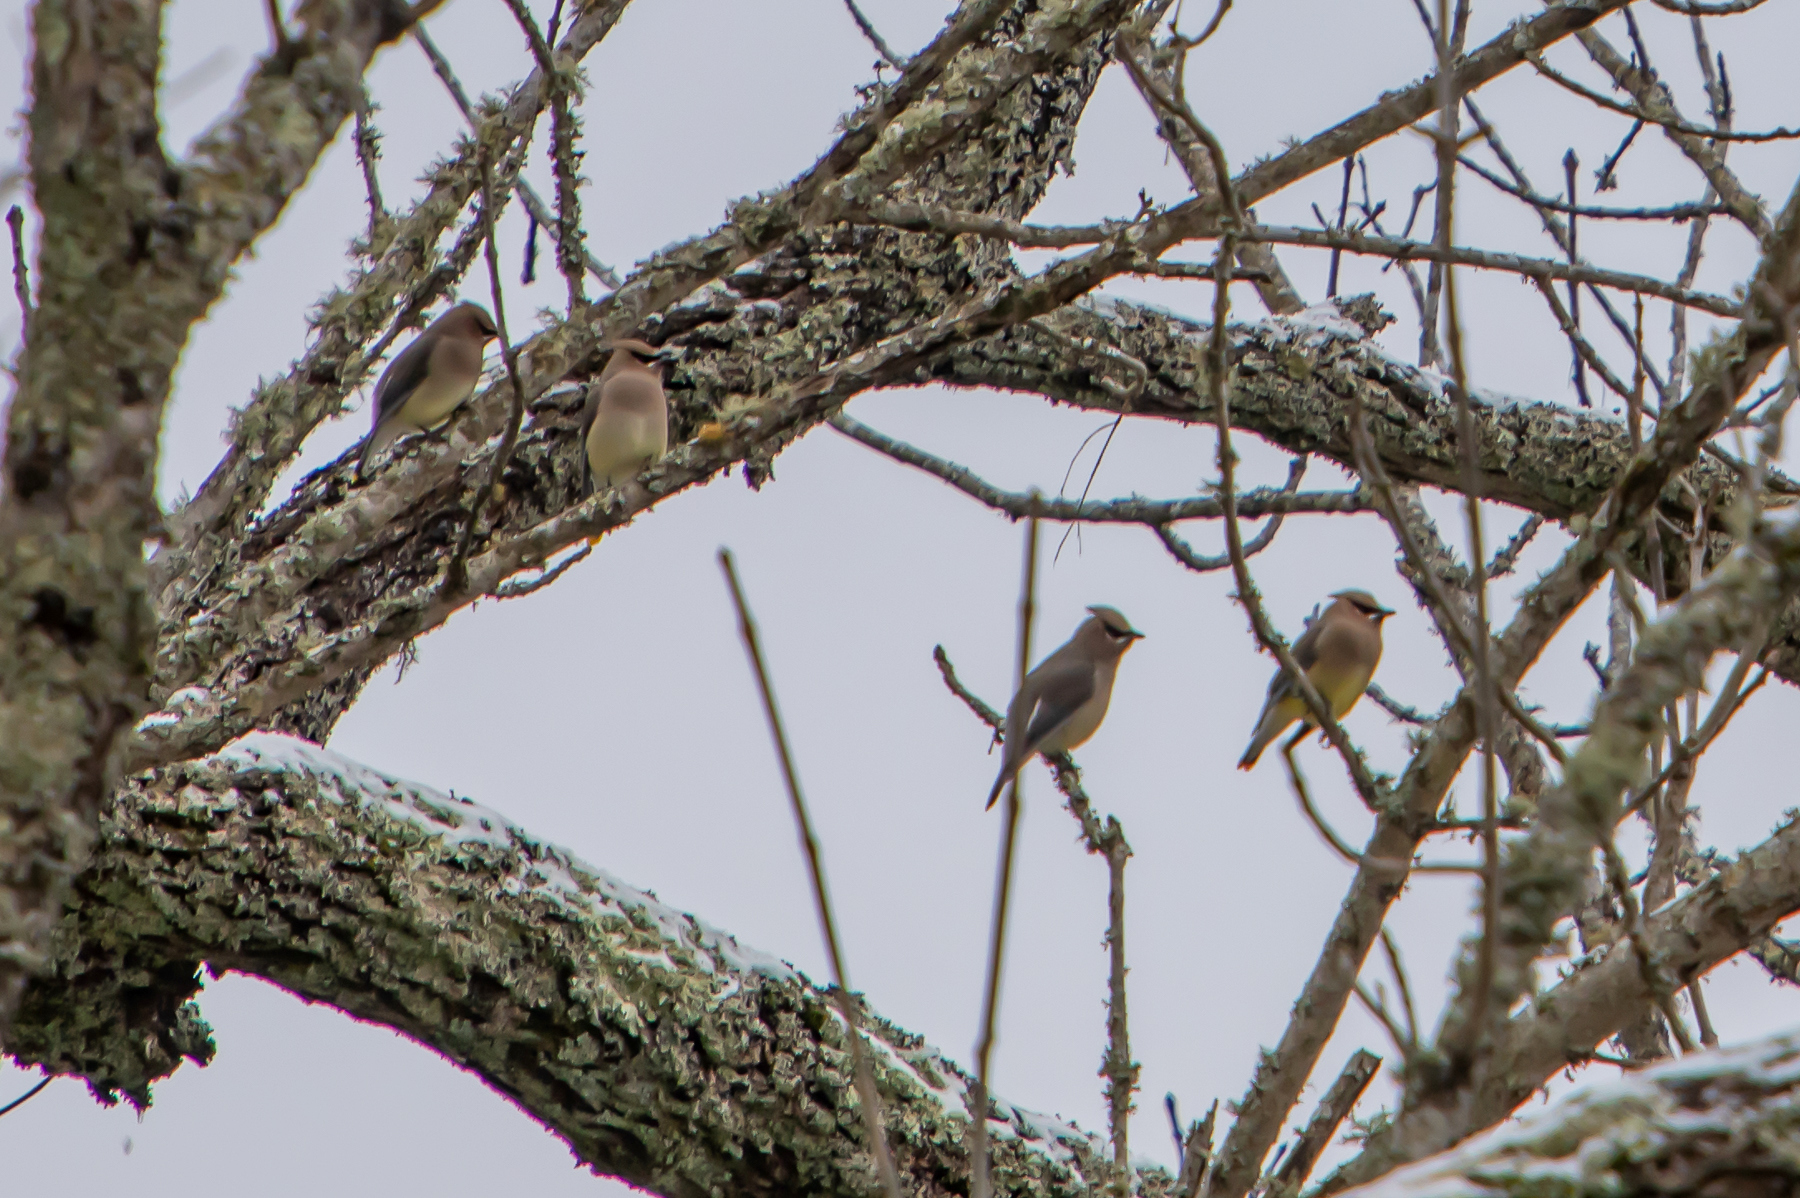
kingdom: Animalia
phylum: Chordata
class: Aves
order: Passeriformes
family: Bombycillidae
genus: Bombycilla
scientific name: Bombycilla cedrorum
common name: Cedar waxwing
